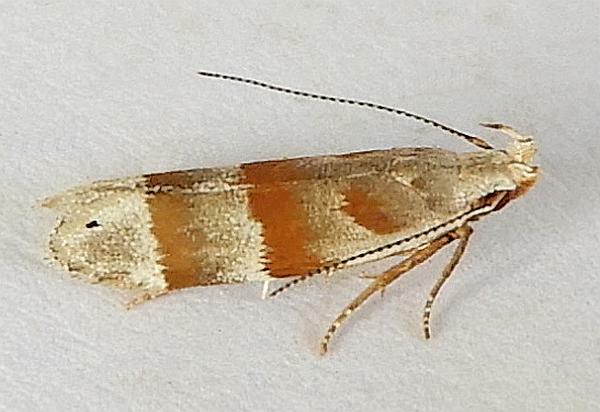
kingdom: Animalia
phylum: Arthropoda
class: Insecta
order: Lepidoptera
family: Gelechiidae
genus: Battaristis
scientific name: Battaristis vittella
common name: Orange stripe-backed moth
